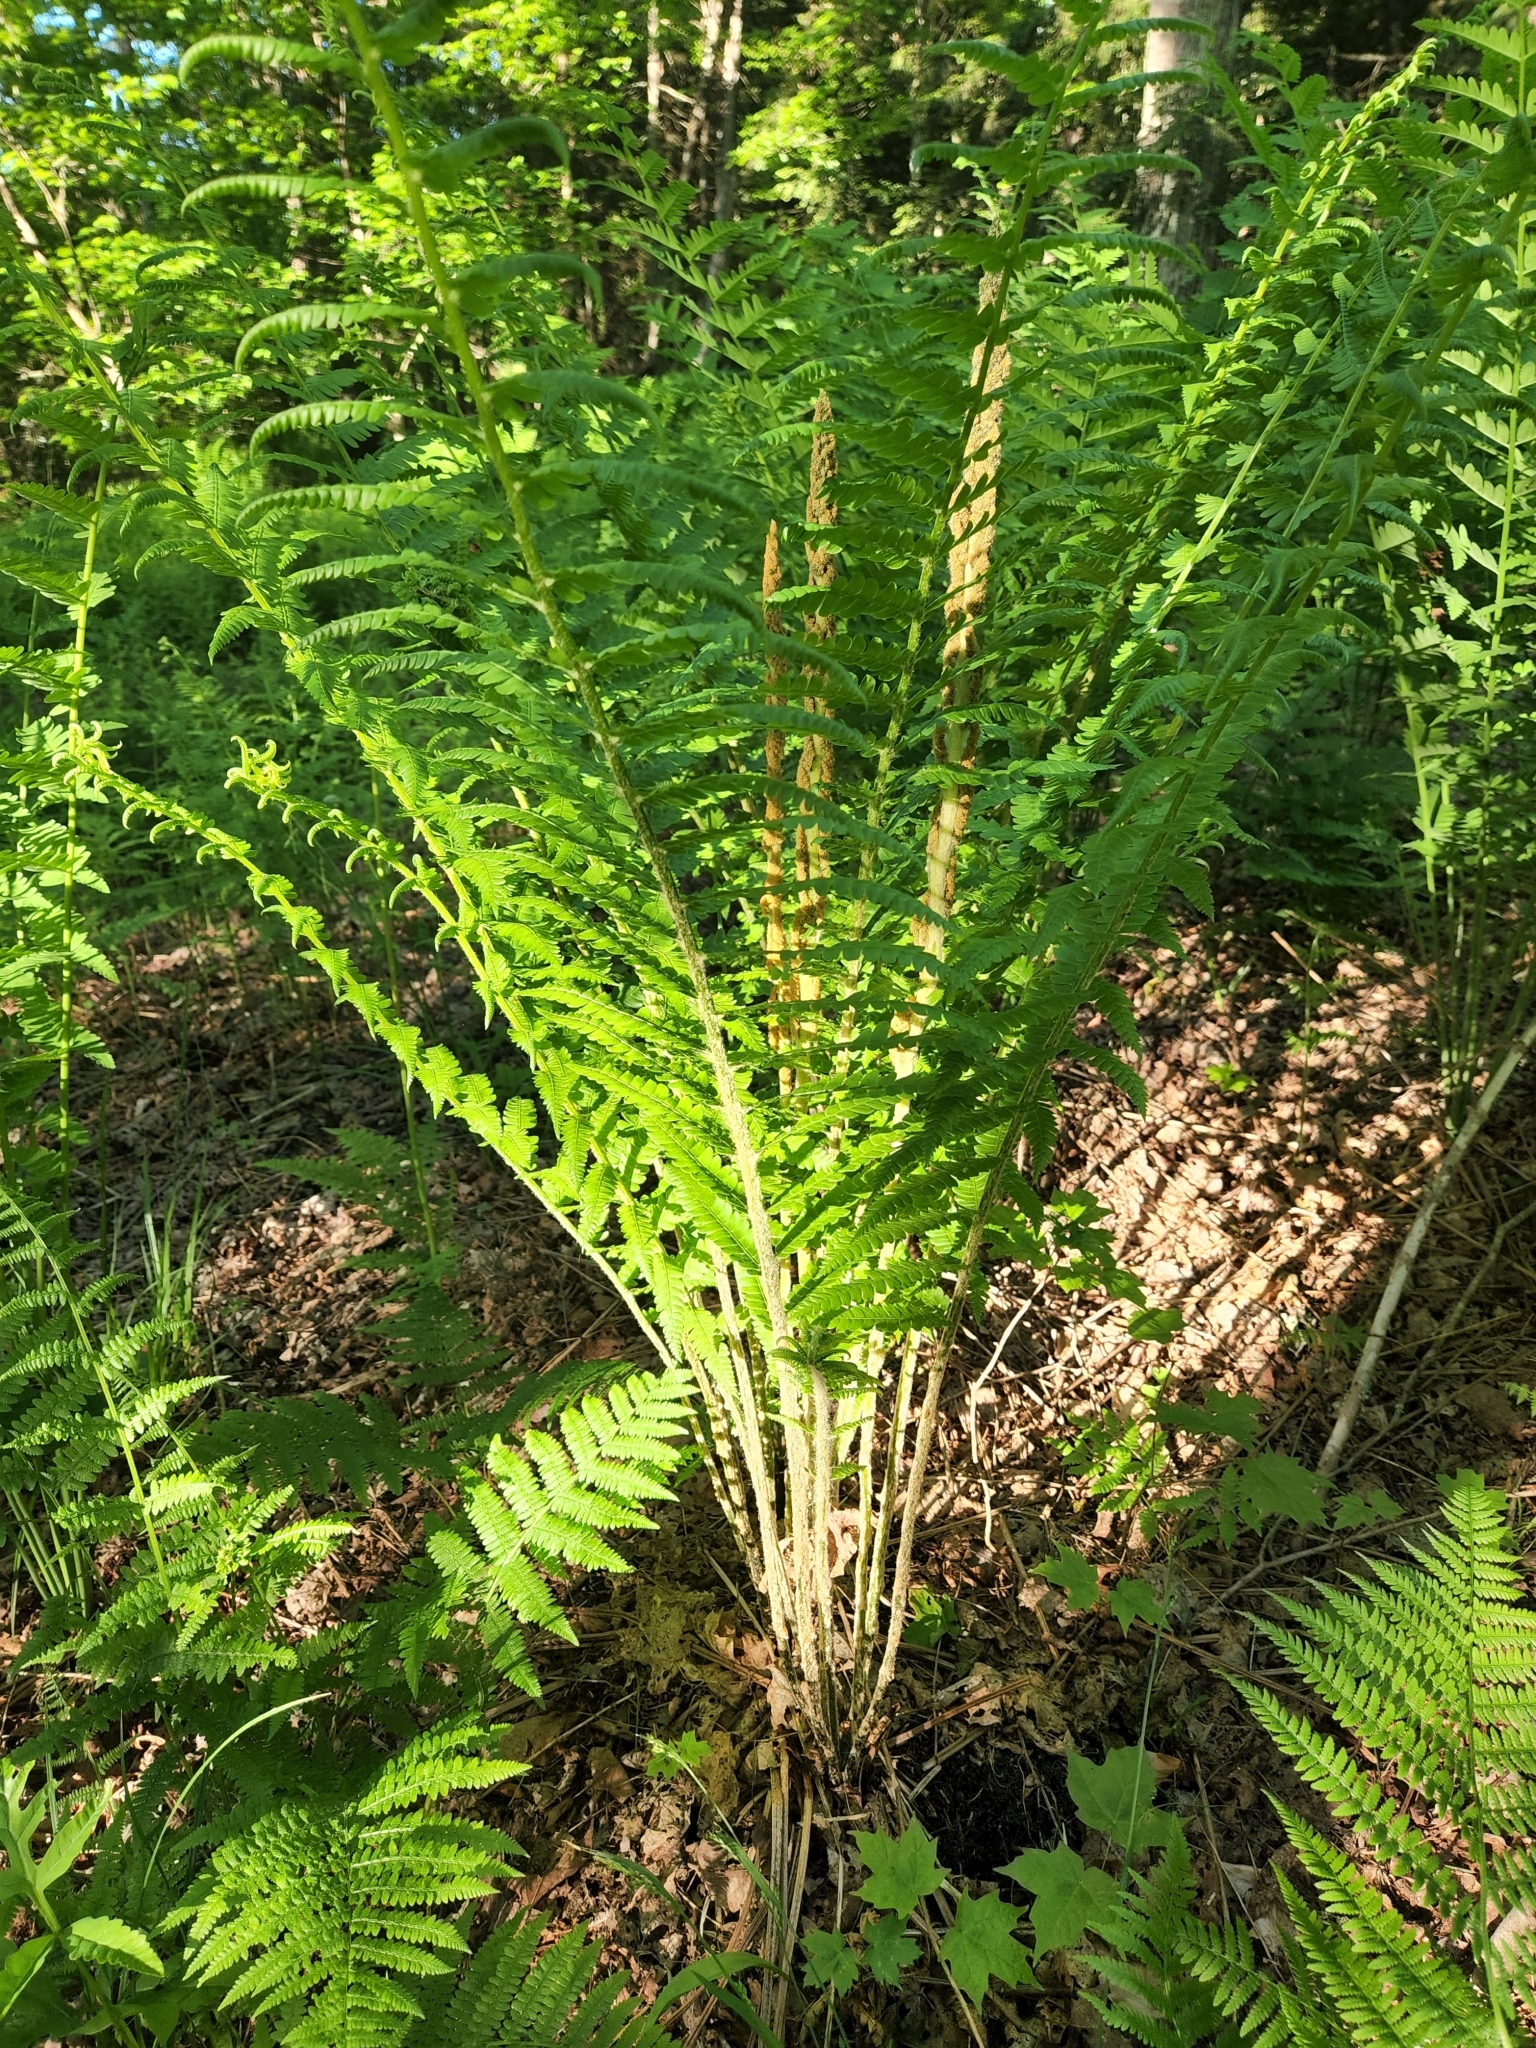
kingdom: Plantae
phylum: Tracheophyta
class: Polypodiopsida
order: Osmundales
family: Osmundaceae
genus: Osmundastrum
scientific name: Osmundastrum cinnamomeum
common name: Cinnamon fern
